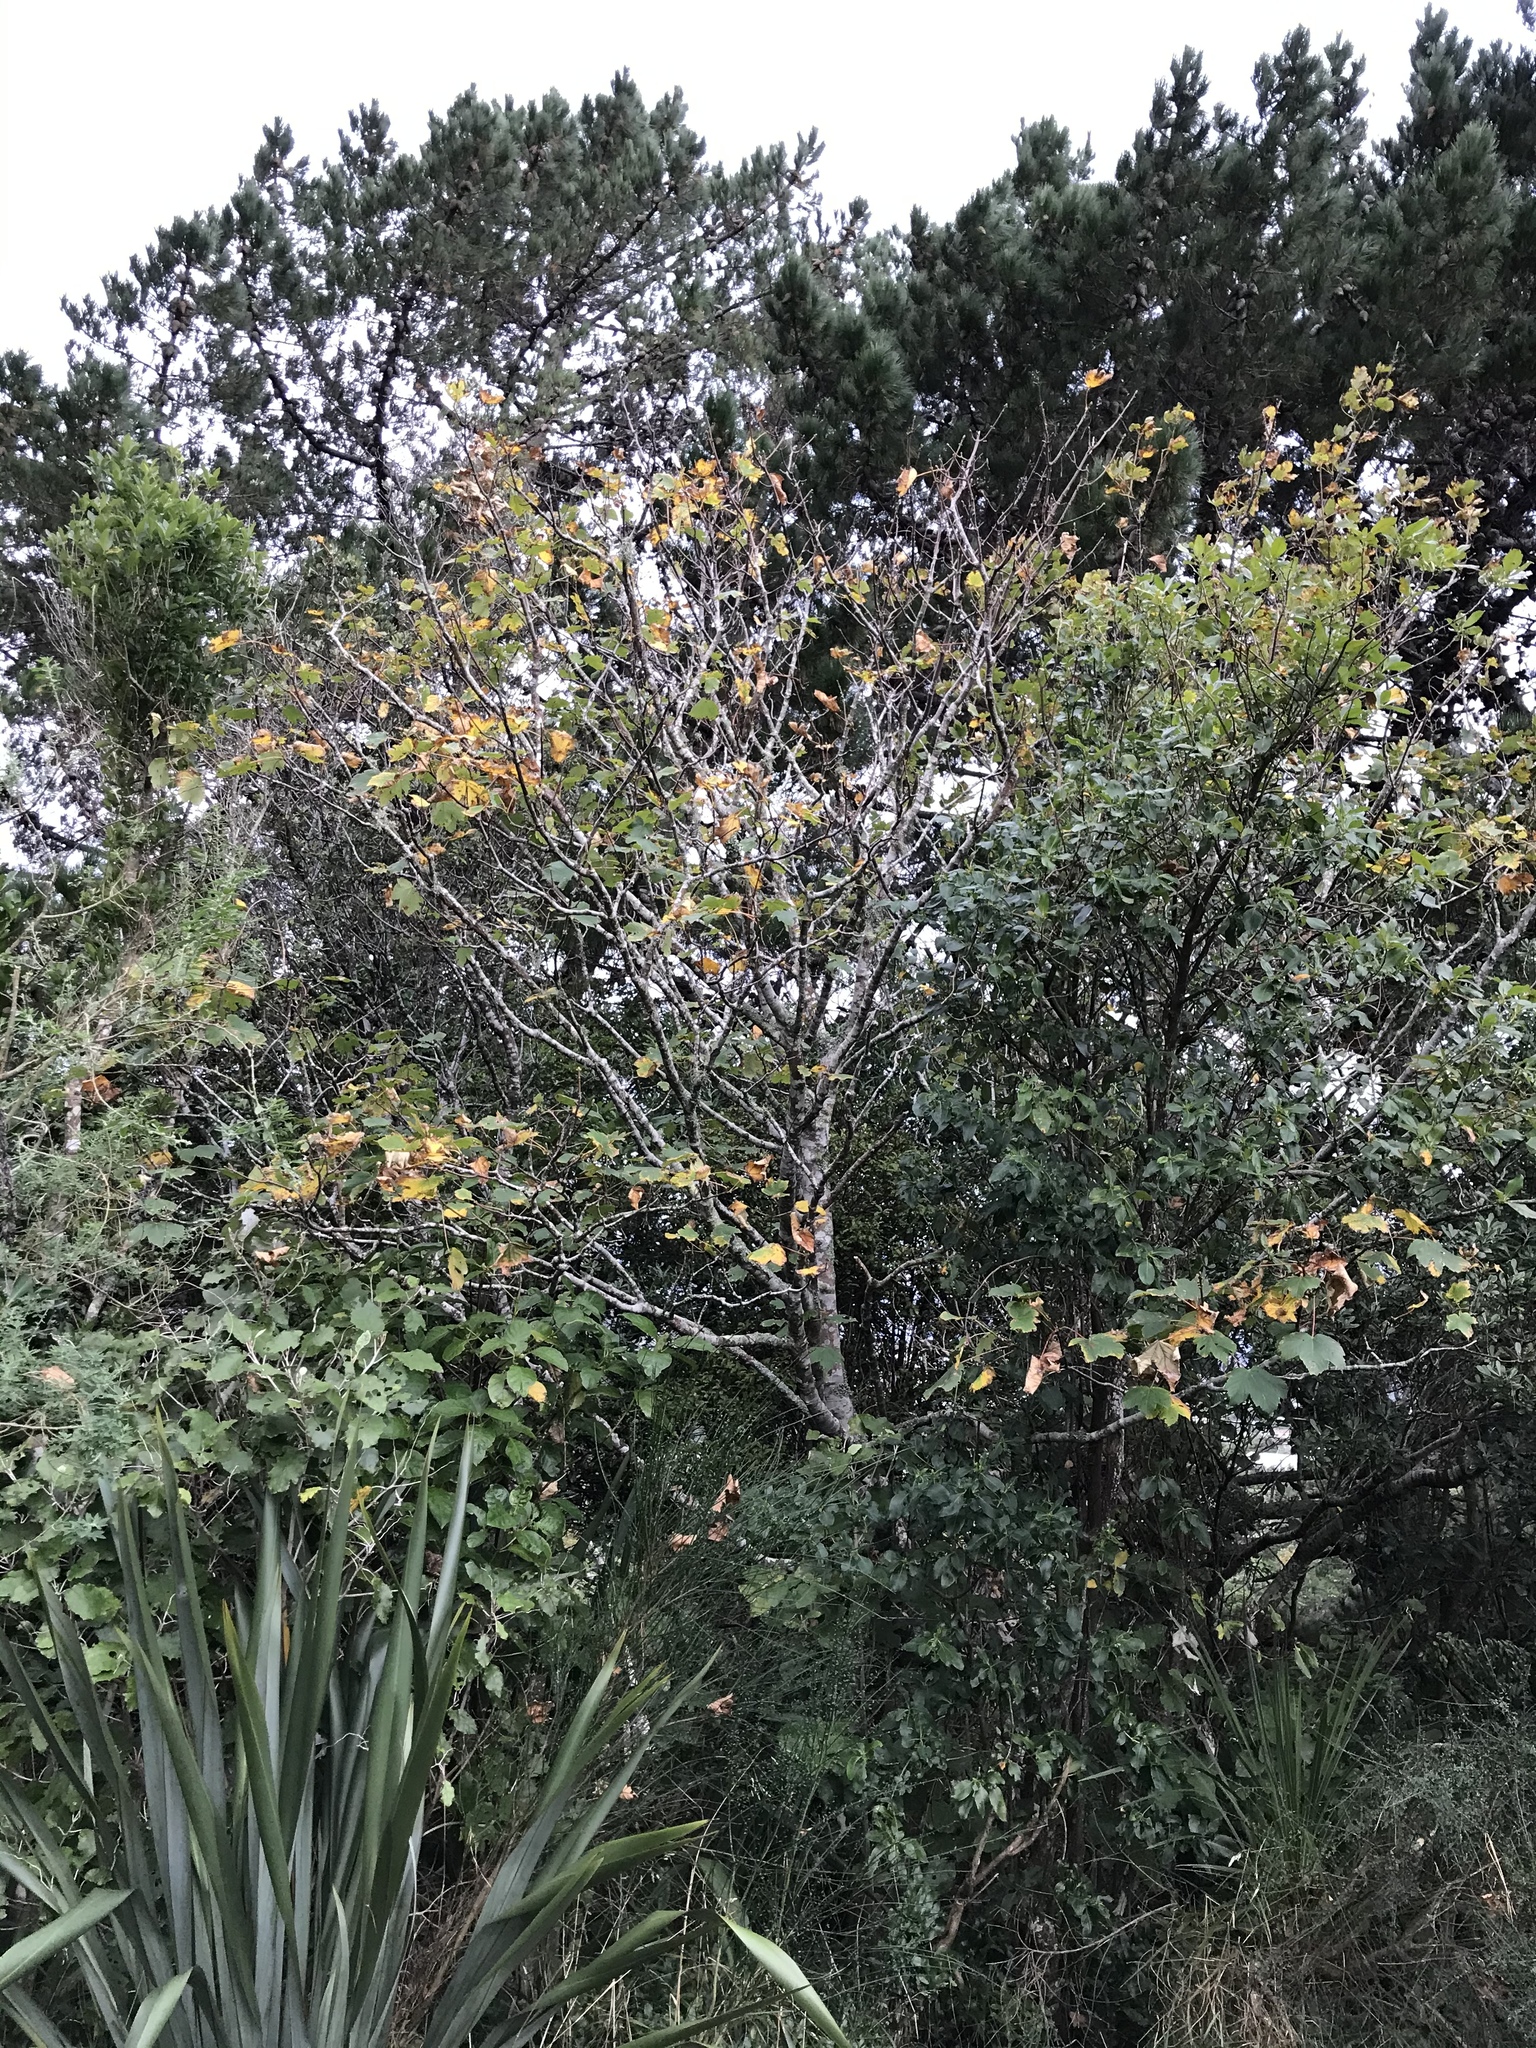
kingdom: Plantae
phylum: Tracheophyta
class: Magnoliopsida
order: Sapindales
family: Sapindaceae
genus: Acer
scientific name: Acer pseudoplatanus
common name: Sycamore
